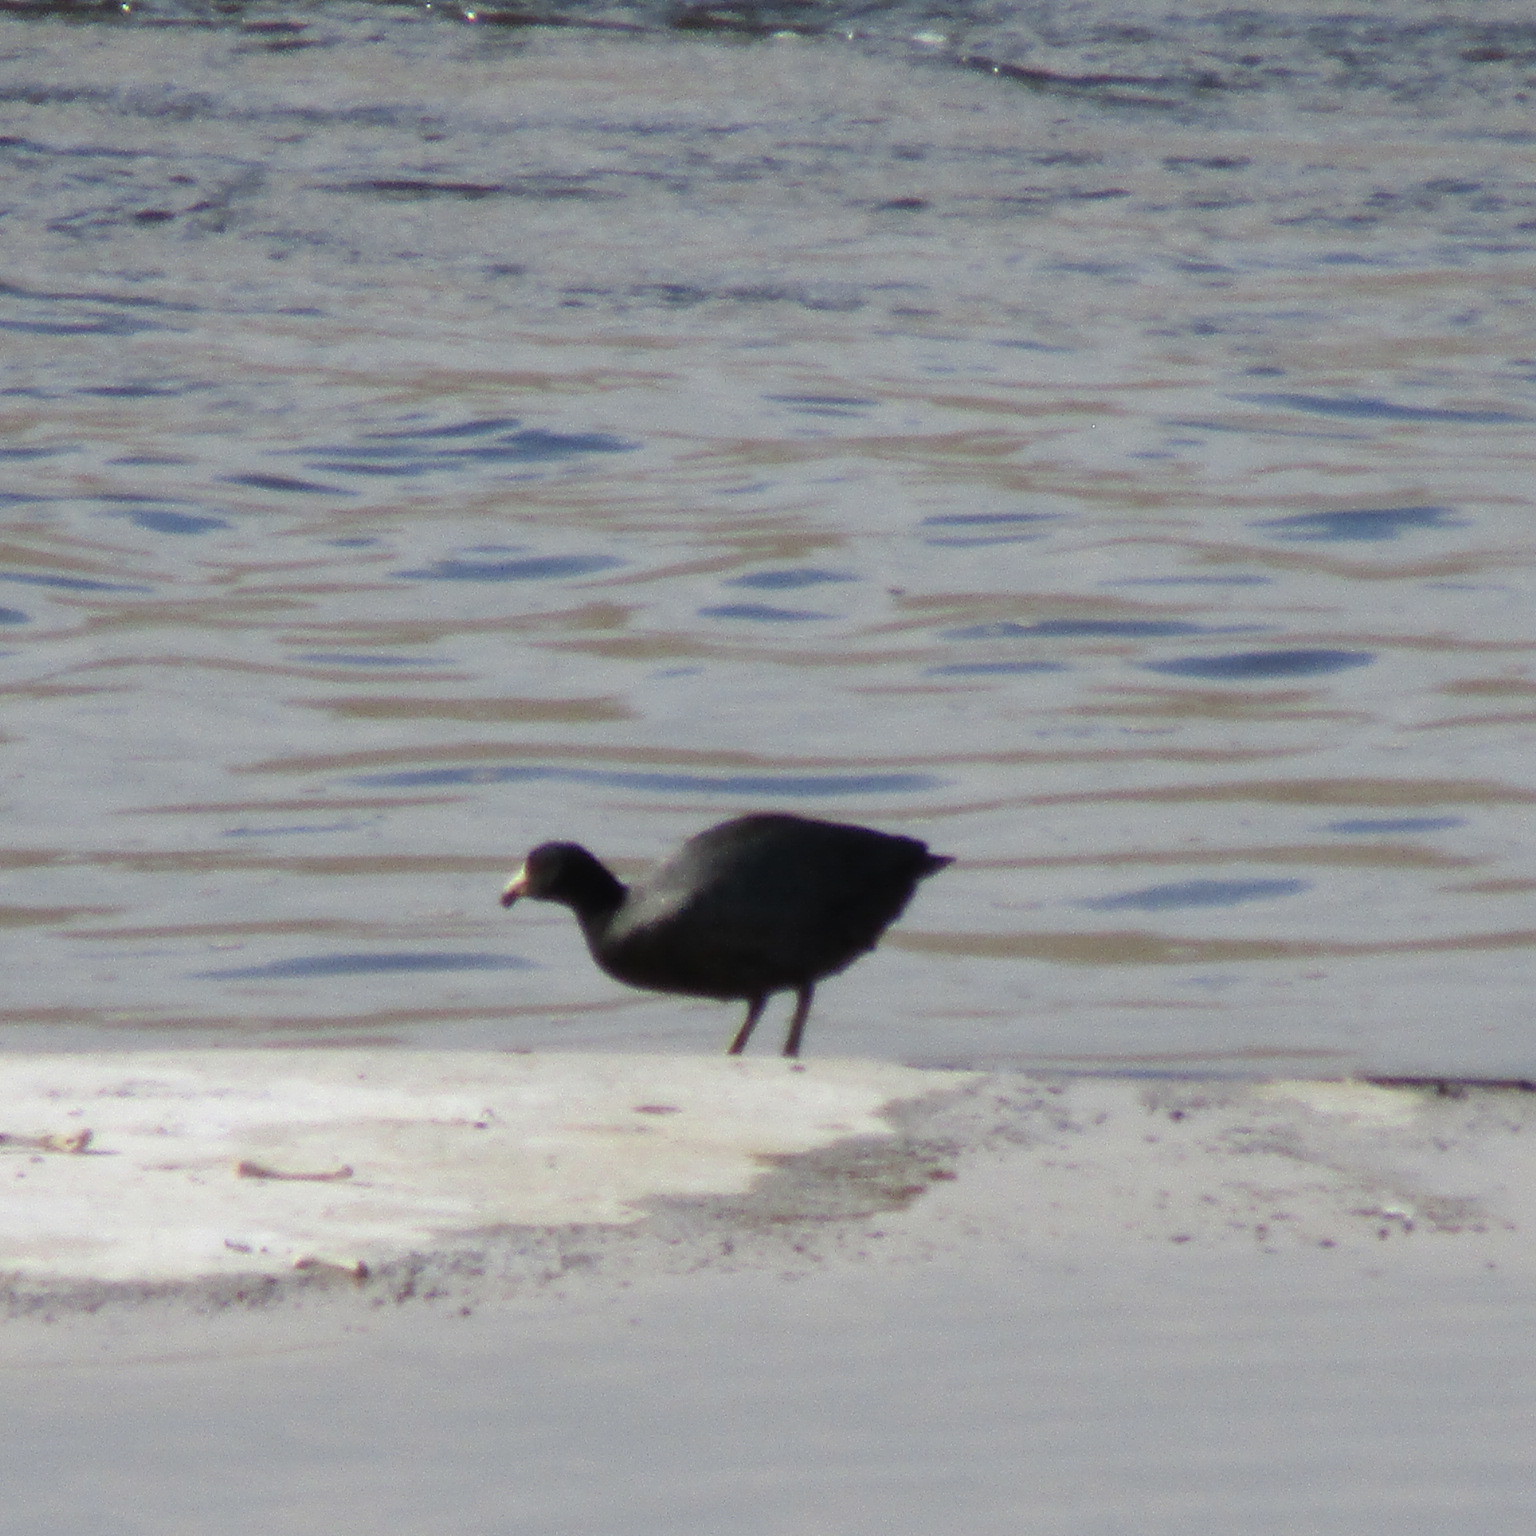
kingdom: Animalia
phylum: Chordata
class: Aves
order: Gruiformes
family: Rallidae
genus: Fulica
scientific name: Fulica americana
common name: American coot
